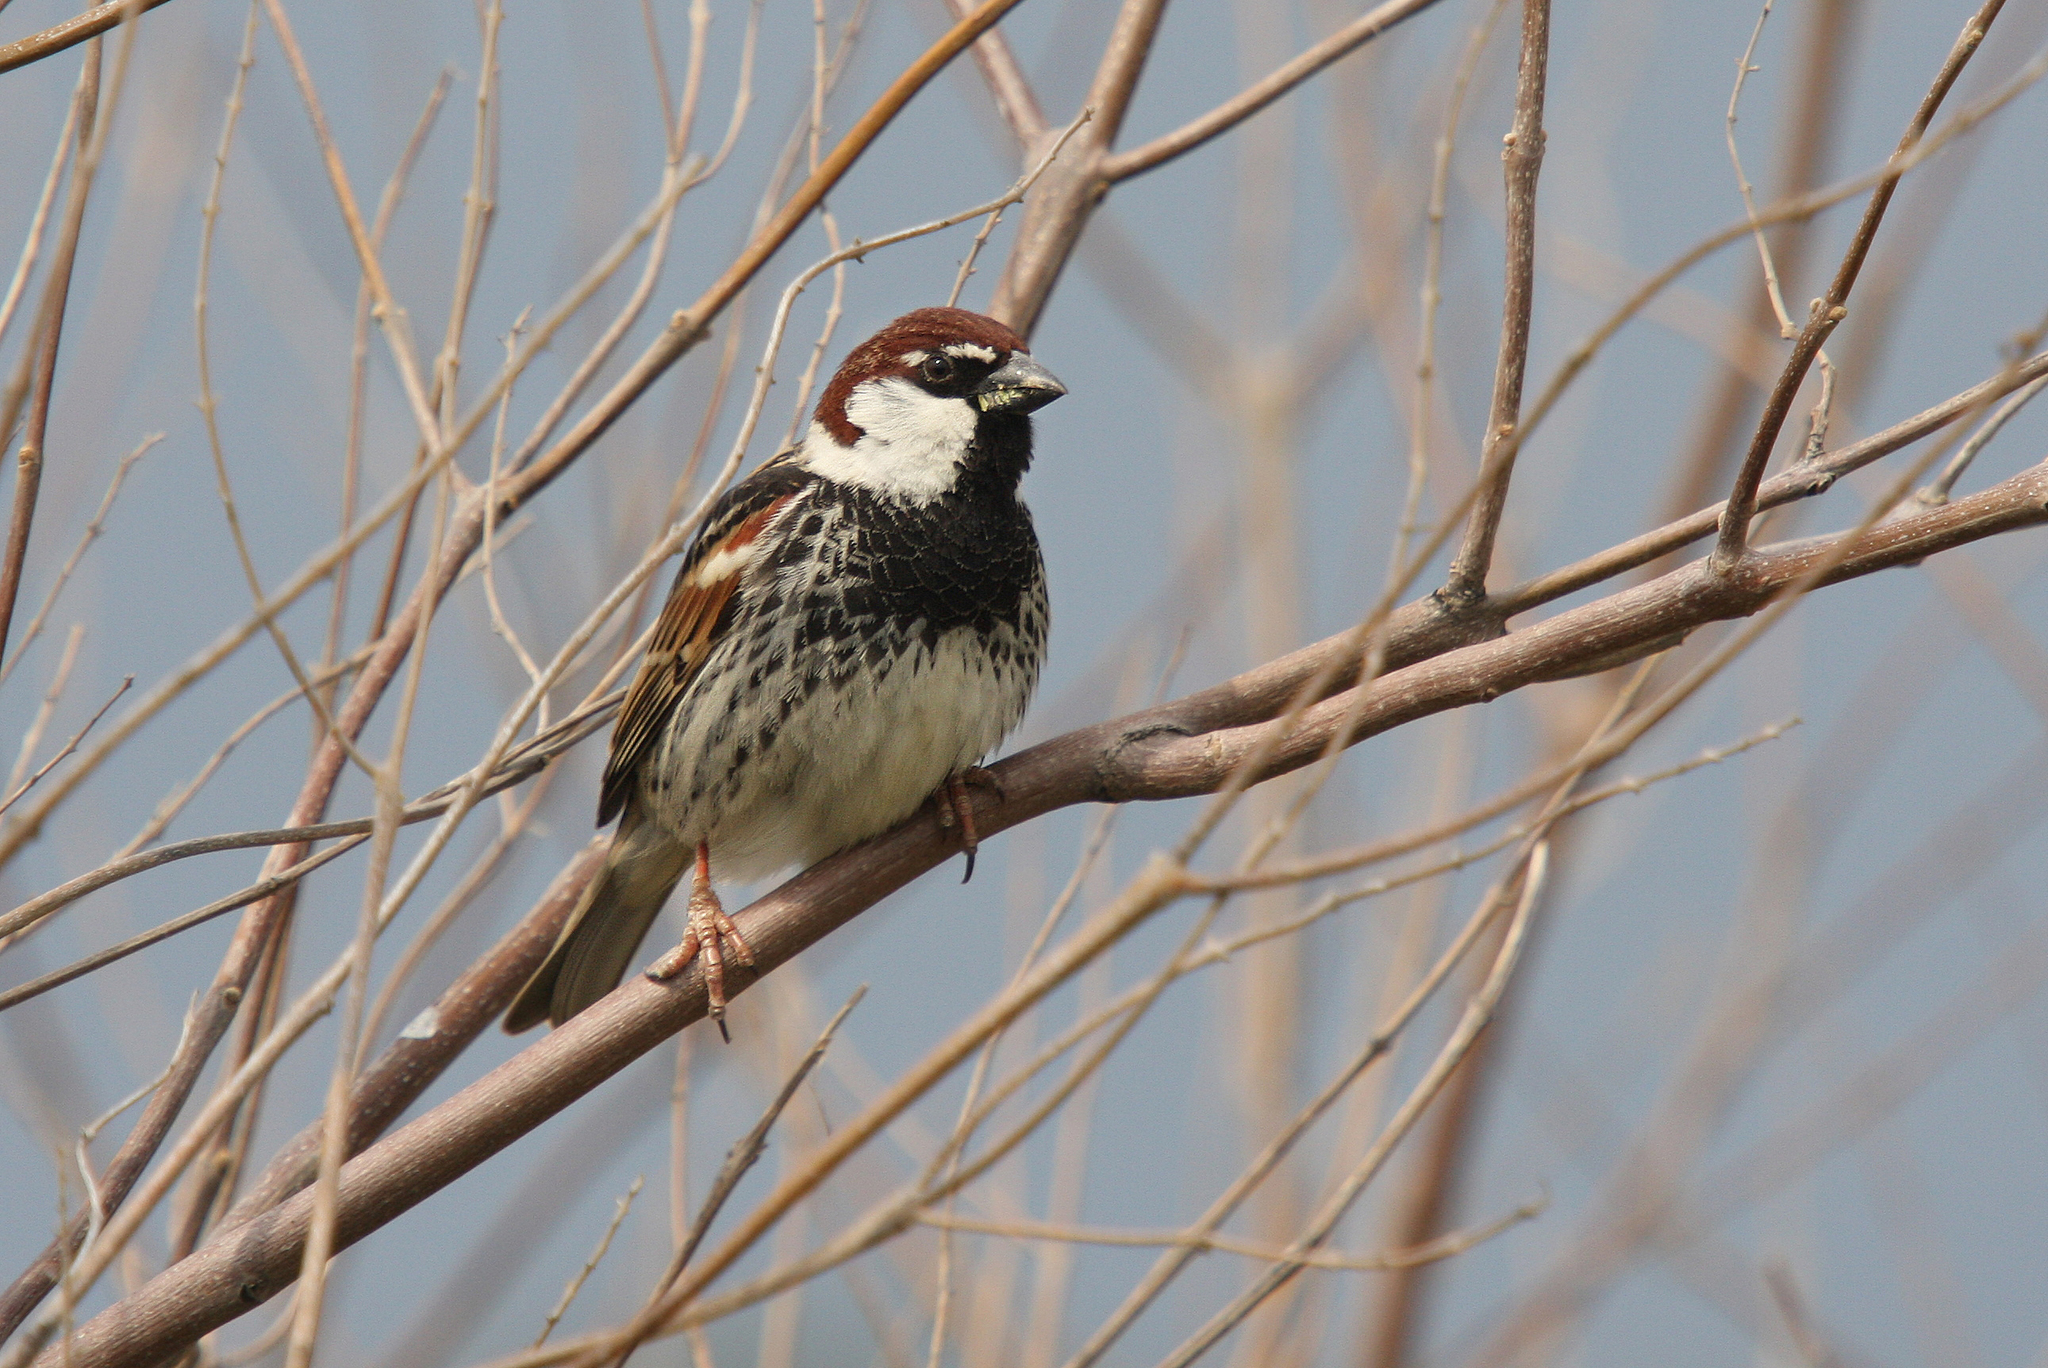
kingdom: Animalia
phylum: Chordata
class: Aves
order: Passeriformes
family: Passeridae
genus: Passer
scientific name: Passer hispaniolensis
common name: Spanish sparrow
